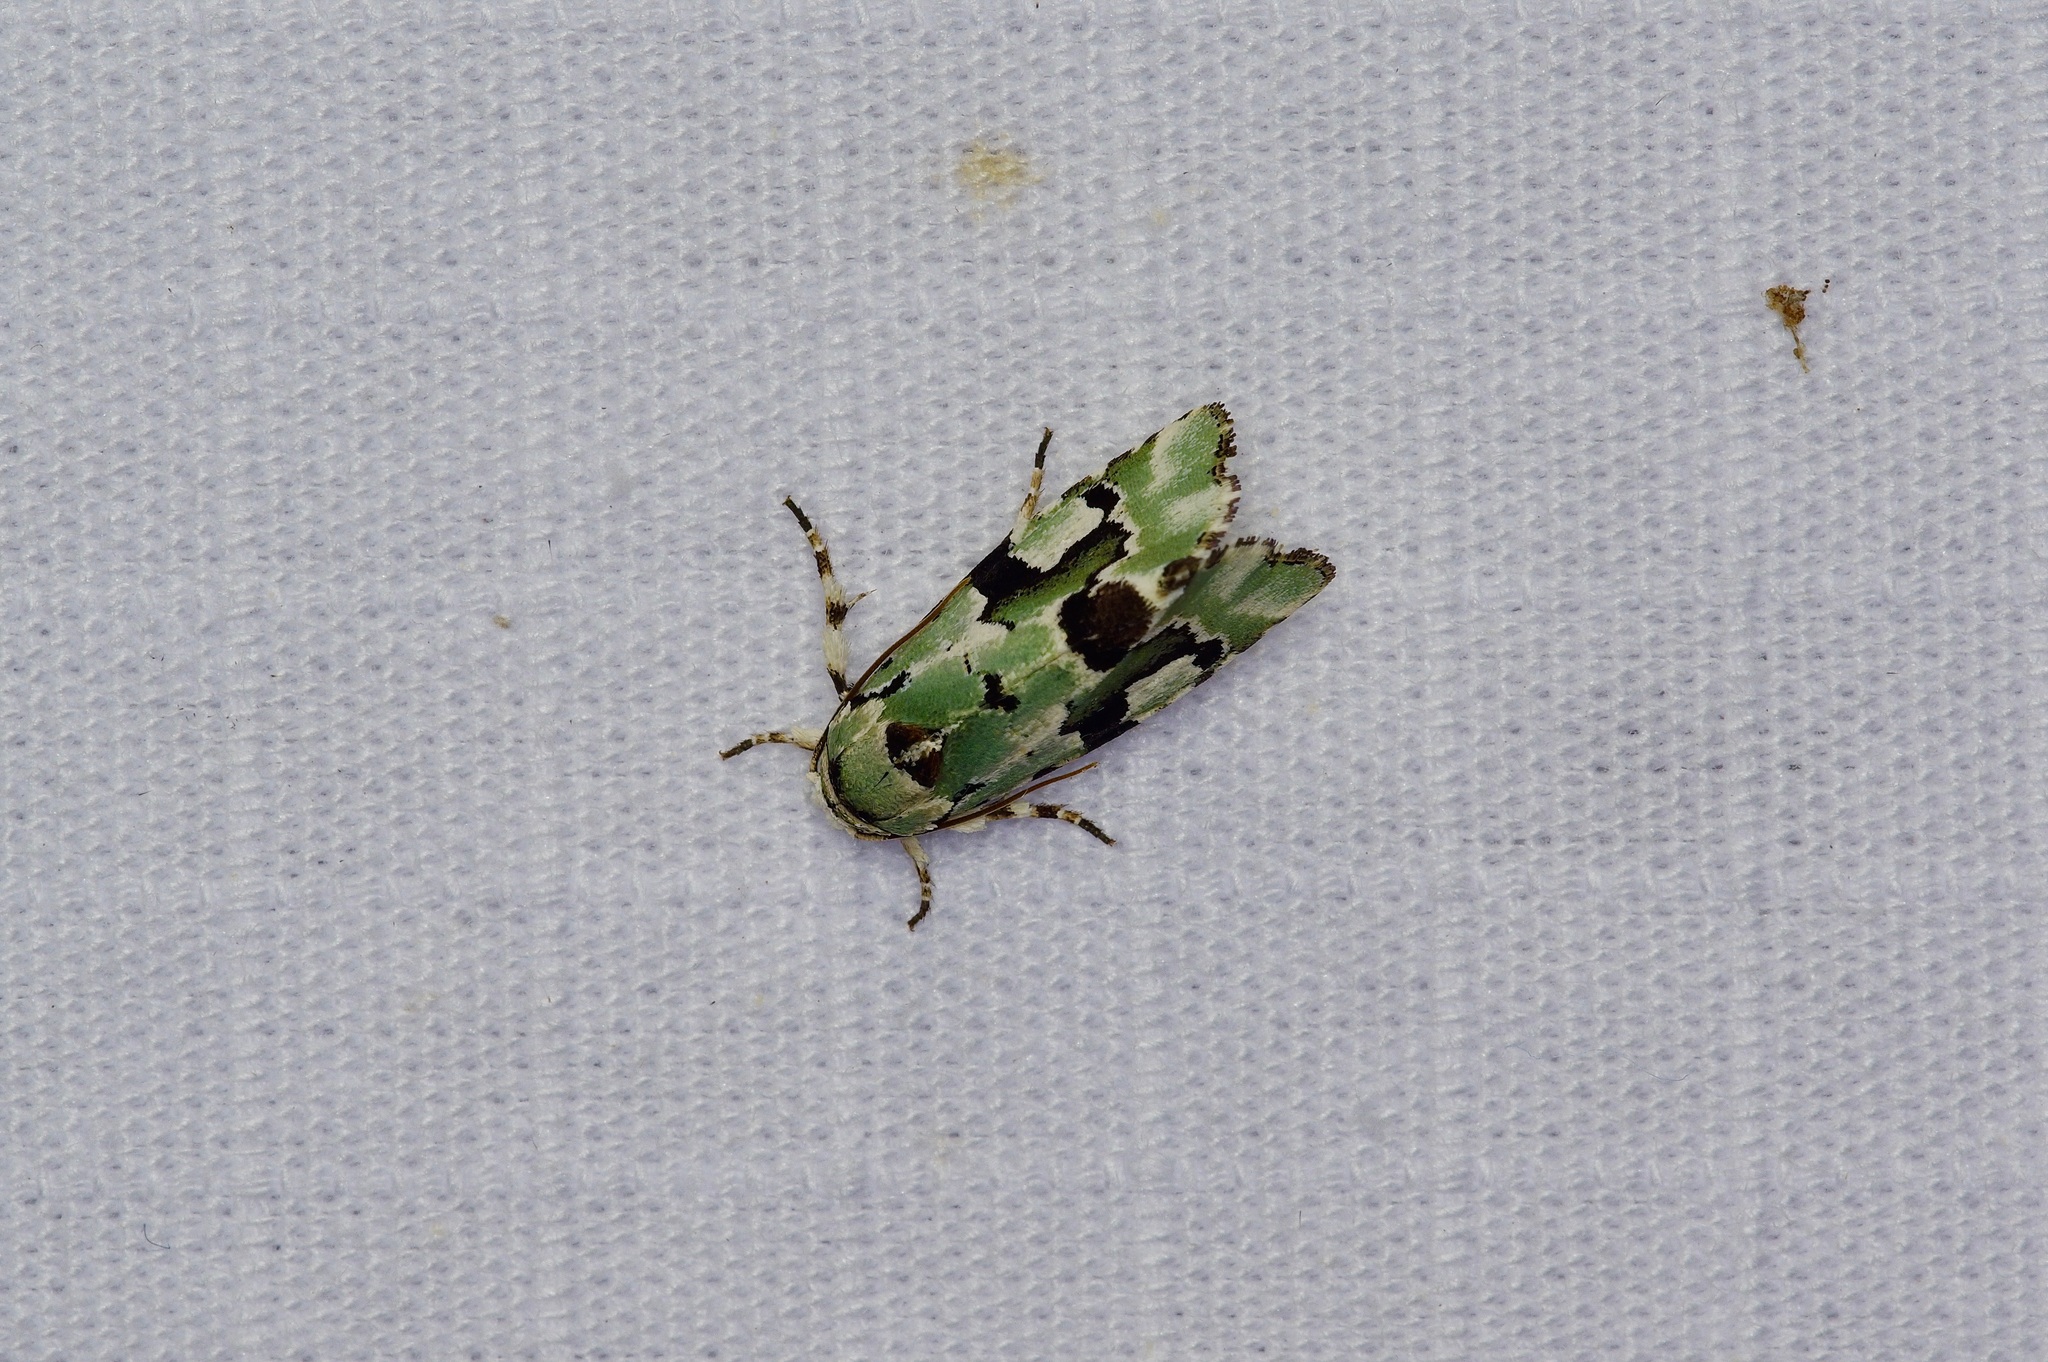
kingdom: Animalia
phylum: Arthropoda
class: Insecta
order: Lepidoptera
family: Noctuidae
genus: Emarginea
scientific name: Emarginea percara
